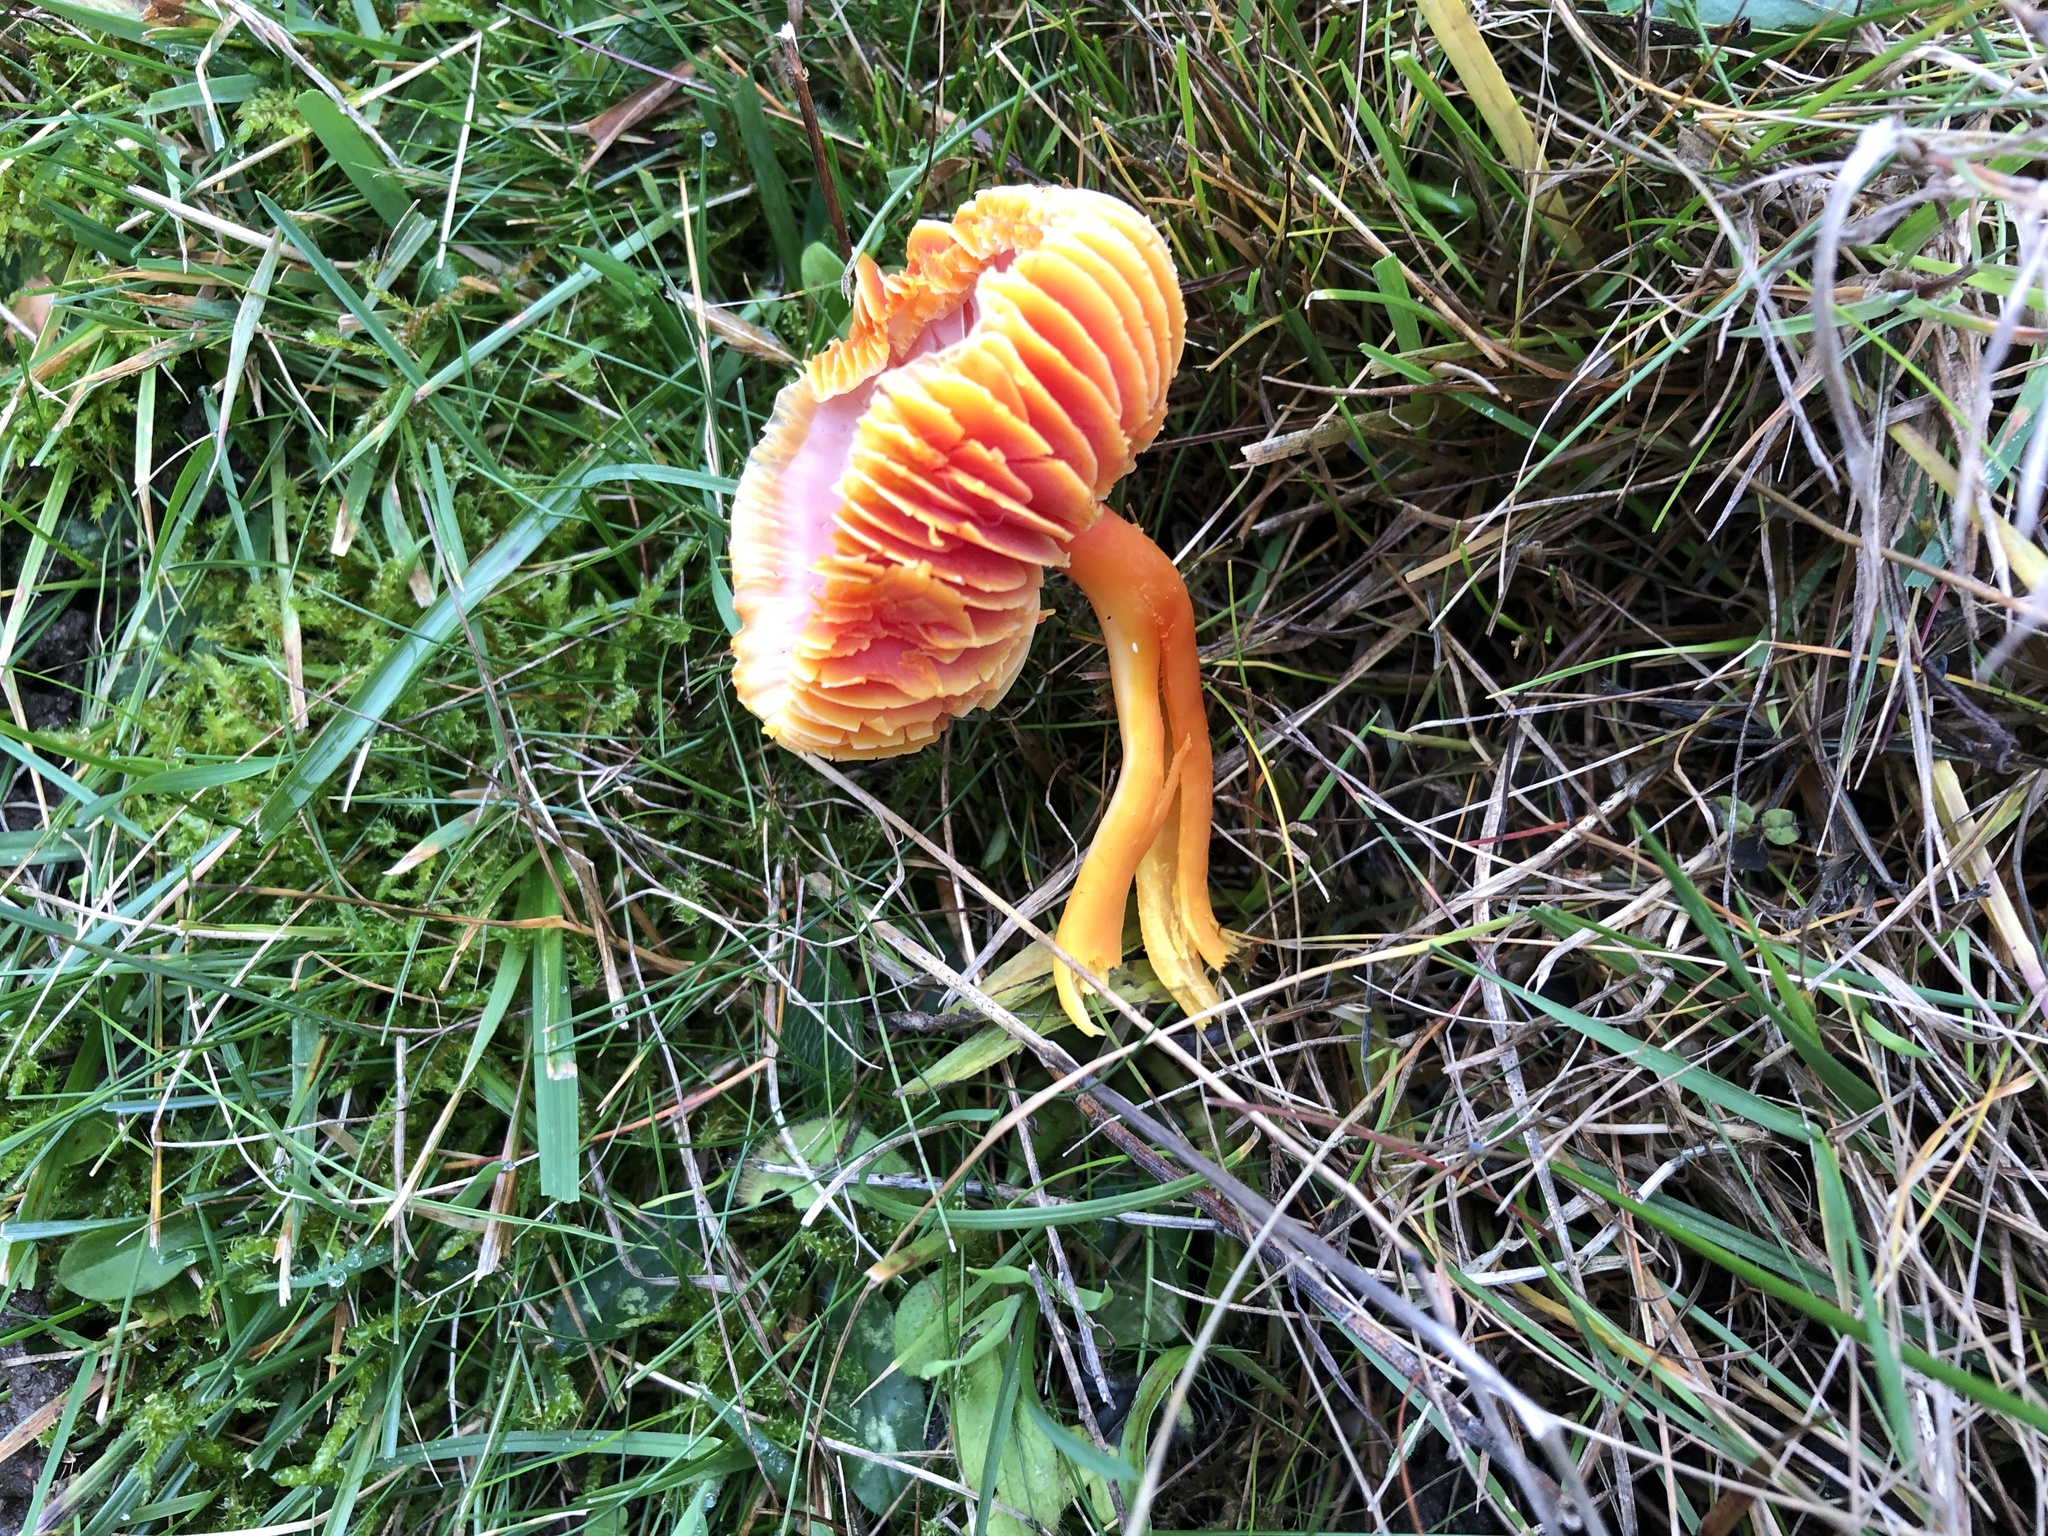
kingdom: Fungi
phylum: Basidiomycota
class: Agaricomycetes
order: Agaricales
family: Hygrophoraceae
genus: Hygrocybe
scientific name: Hygrocybe coccinea
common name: Scarlet hood
